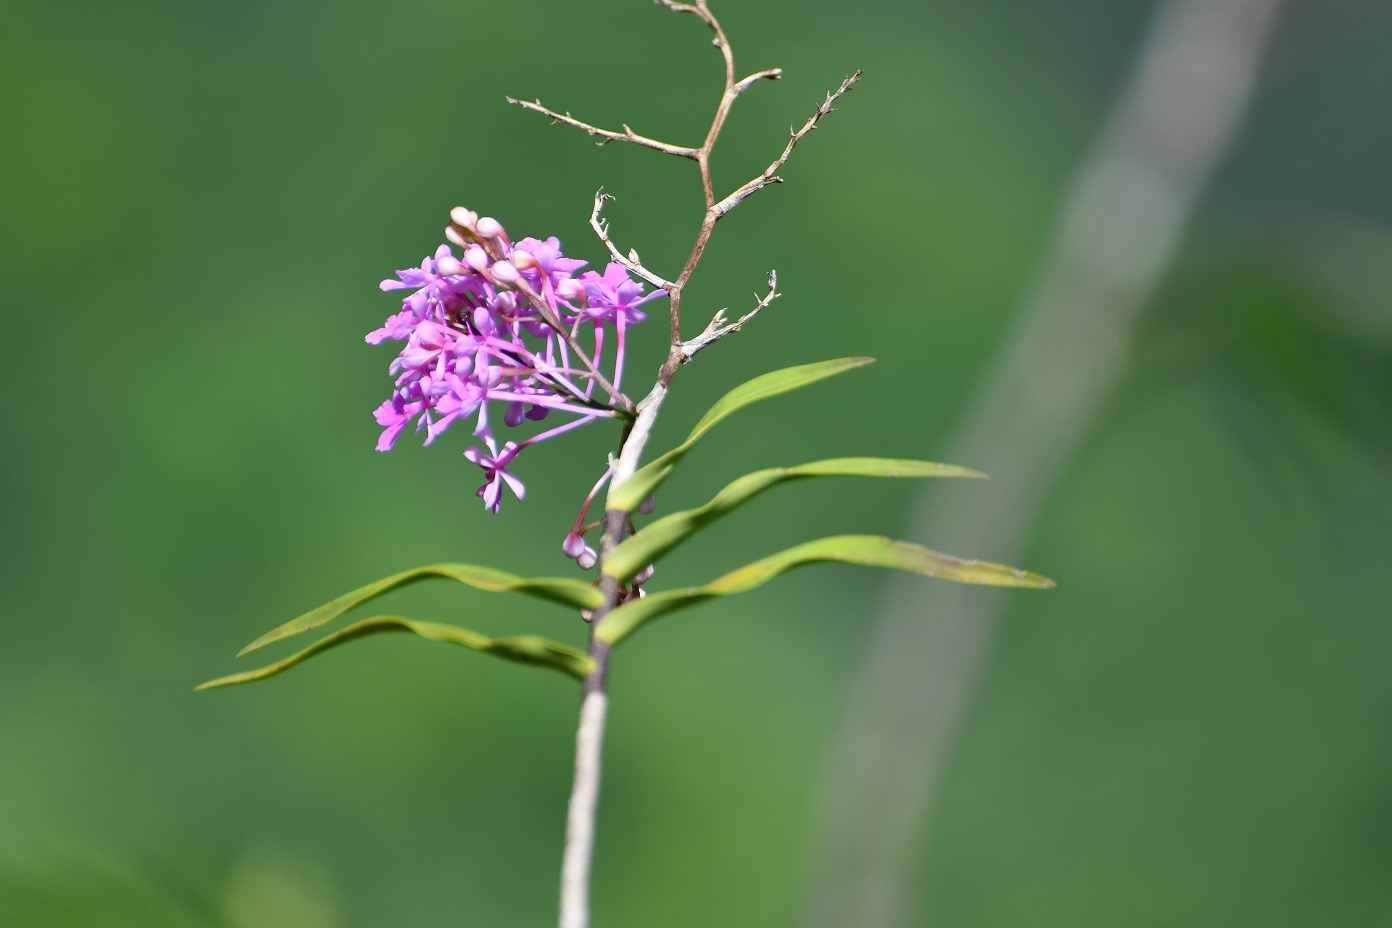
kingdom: Plantae
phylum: Tracheophyta
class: Liliopsida
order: Asparagales
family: Orchidaceae
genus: Epidendrum
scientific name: Epidendrum myrianthum
